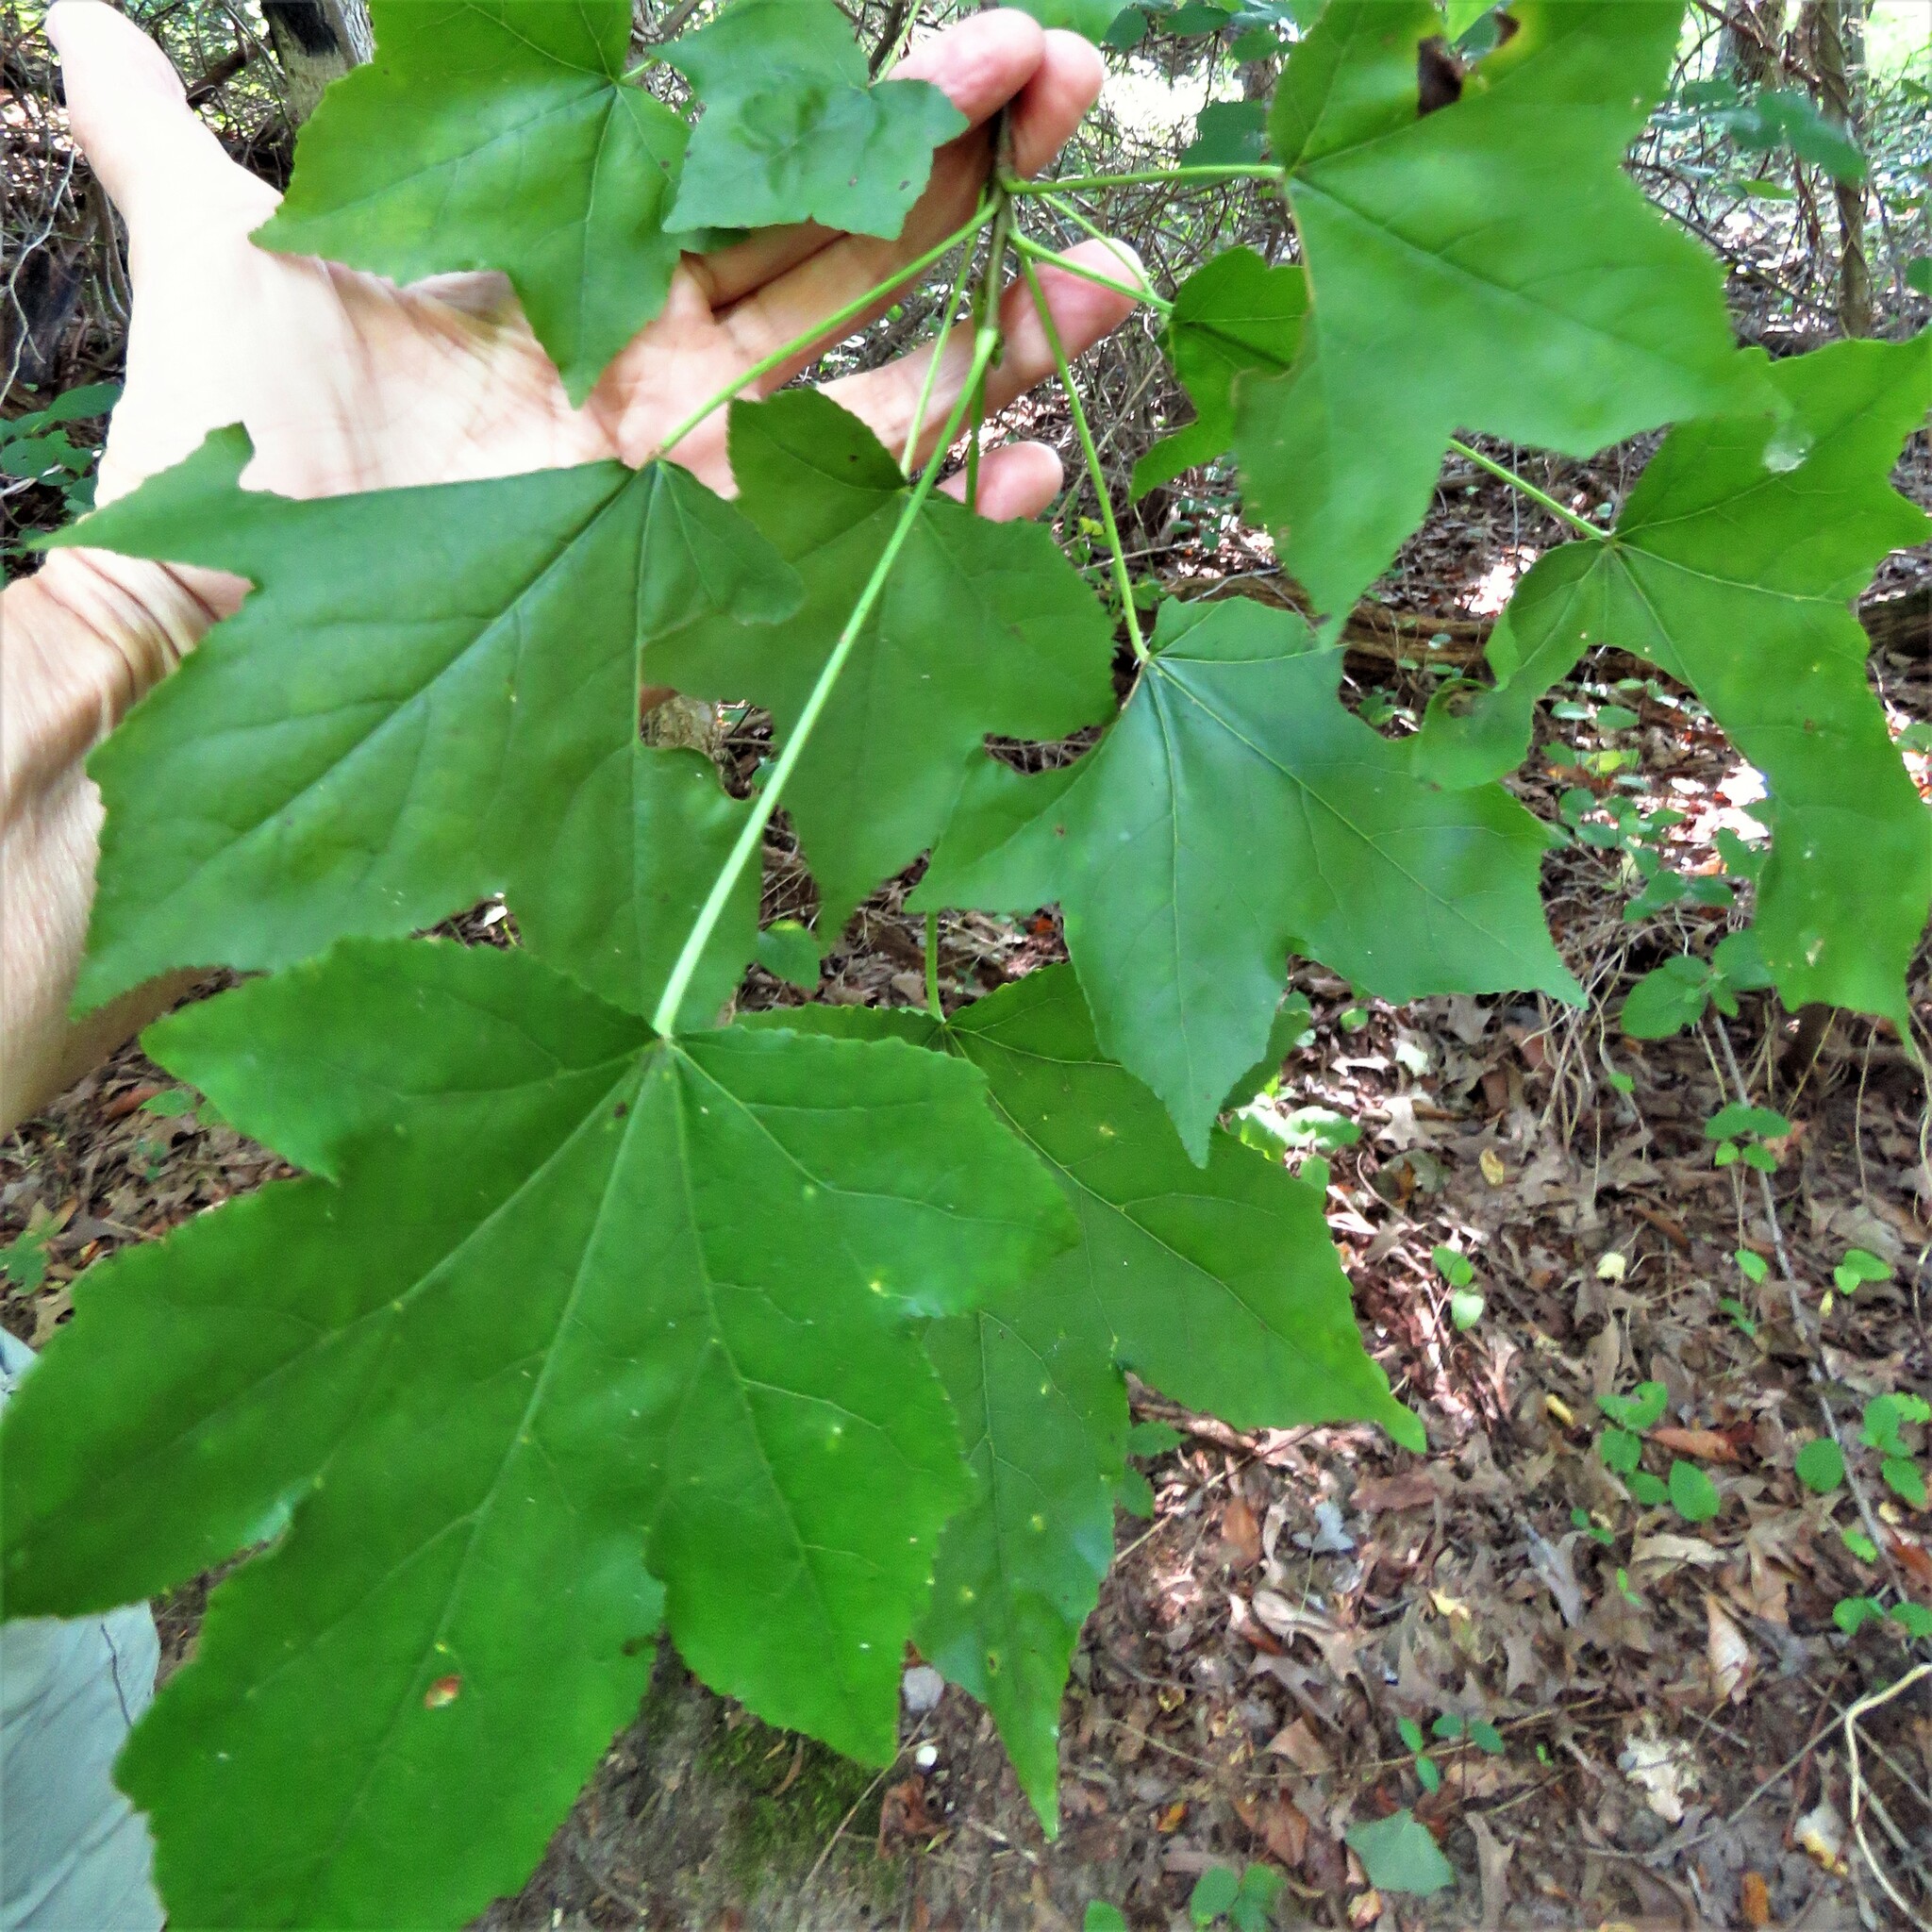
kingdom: Plantae
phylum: Tracheophyta
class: Magnoliopsida
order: Saxifragales
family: Altingiaceae
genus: Liquidambar
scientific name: Liquidambar styraciflua
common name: Sweet gum
